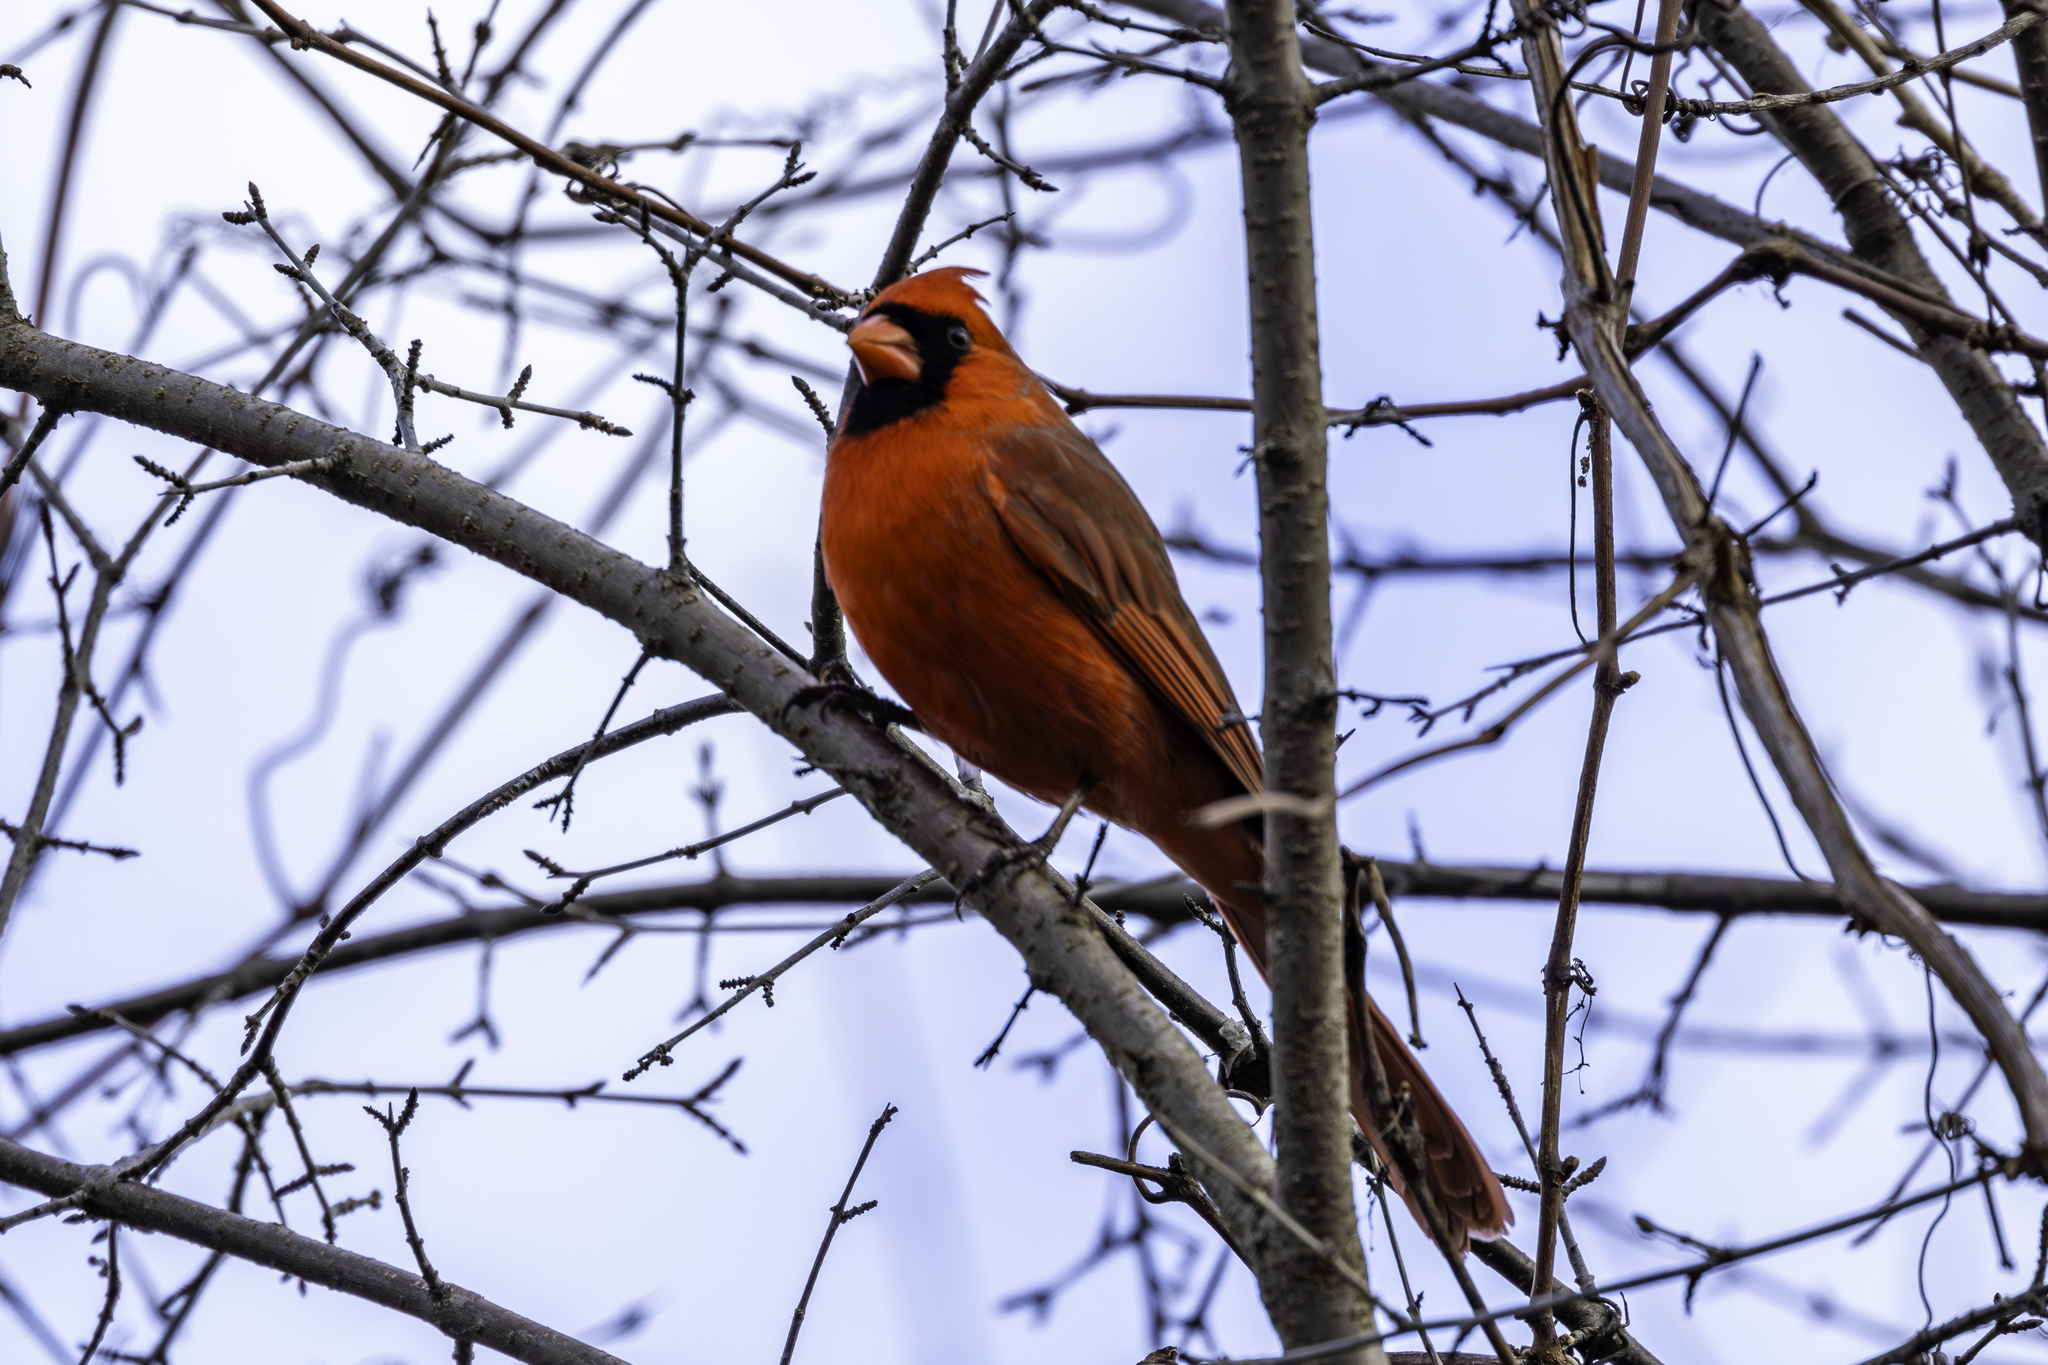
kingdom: Animalia
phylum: Chordata
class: Aves
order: Passeriformes
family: Cardinalidae
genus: Cardinalis
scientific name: Cardinalis cardinalis
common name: Northern cardinal
